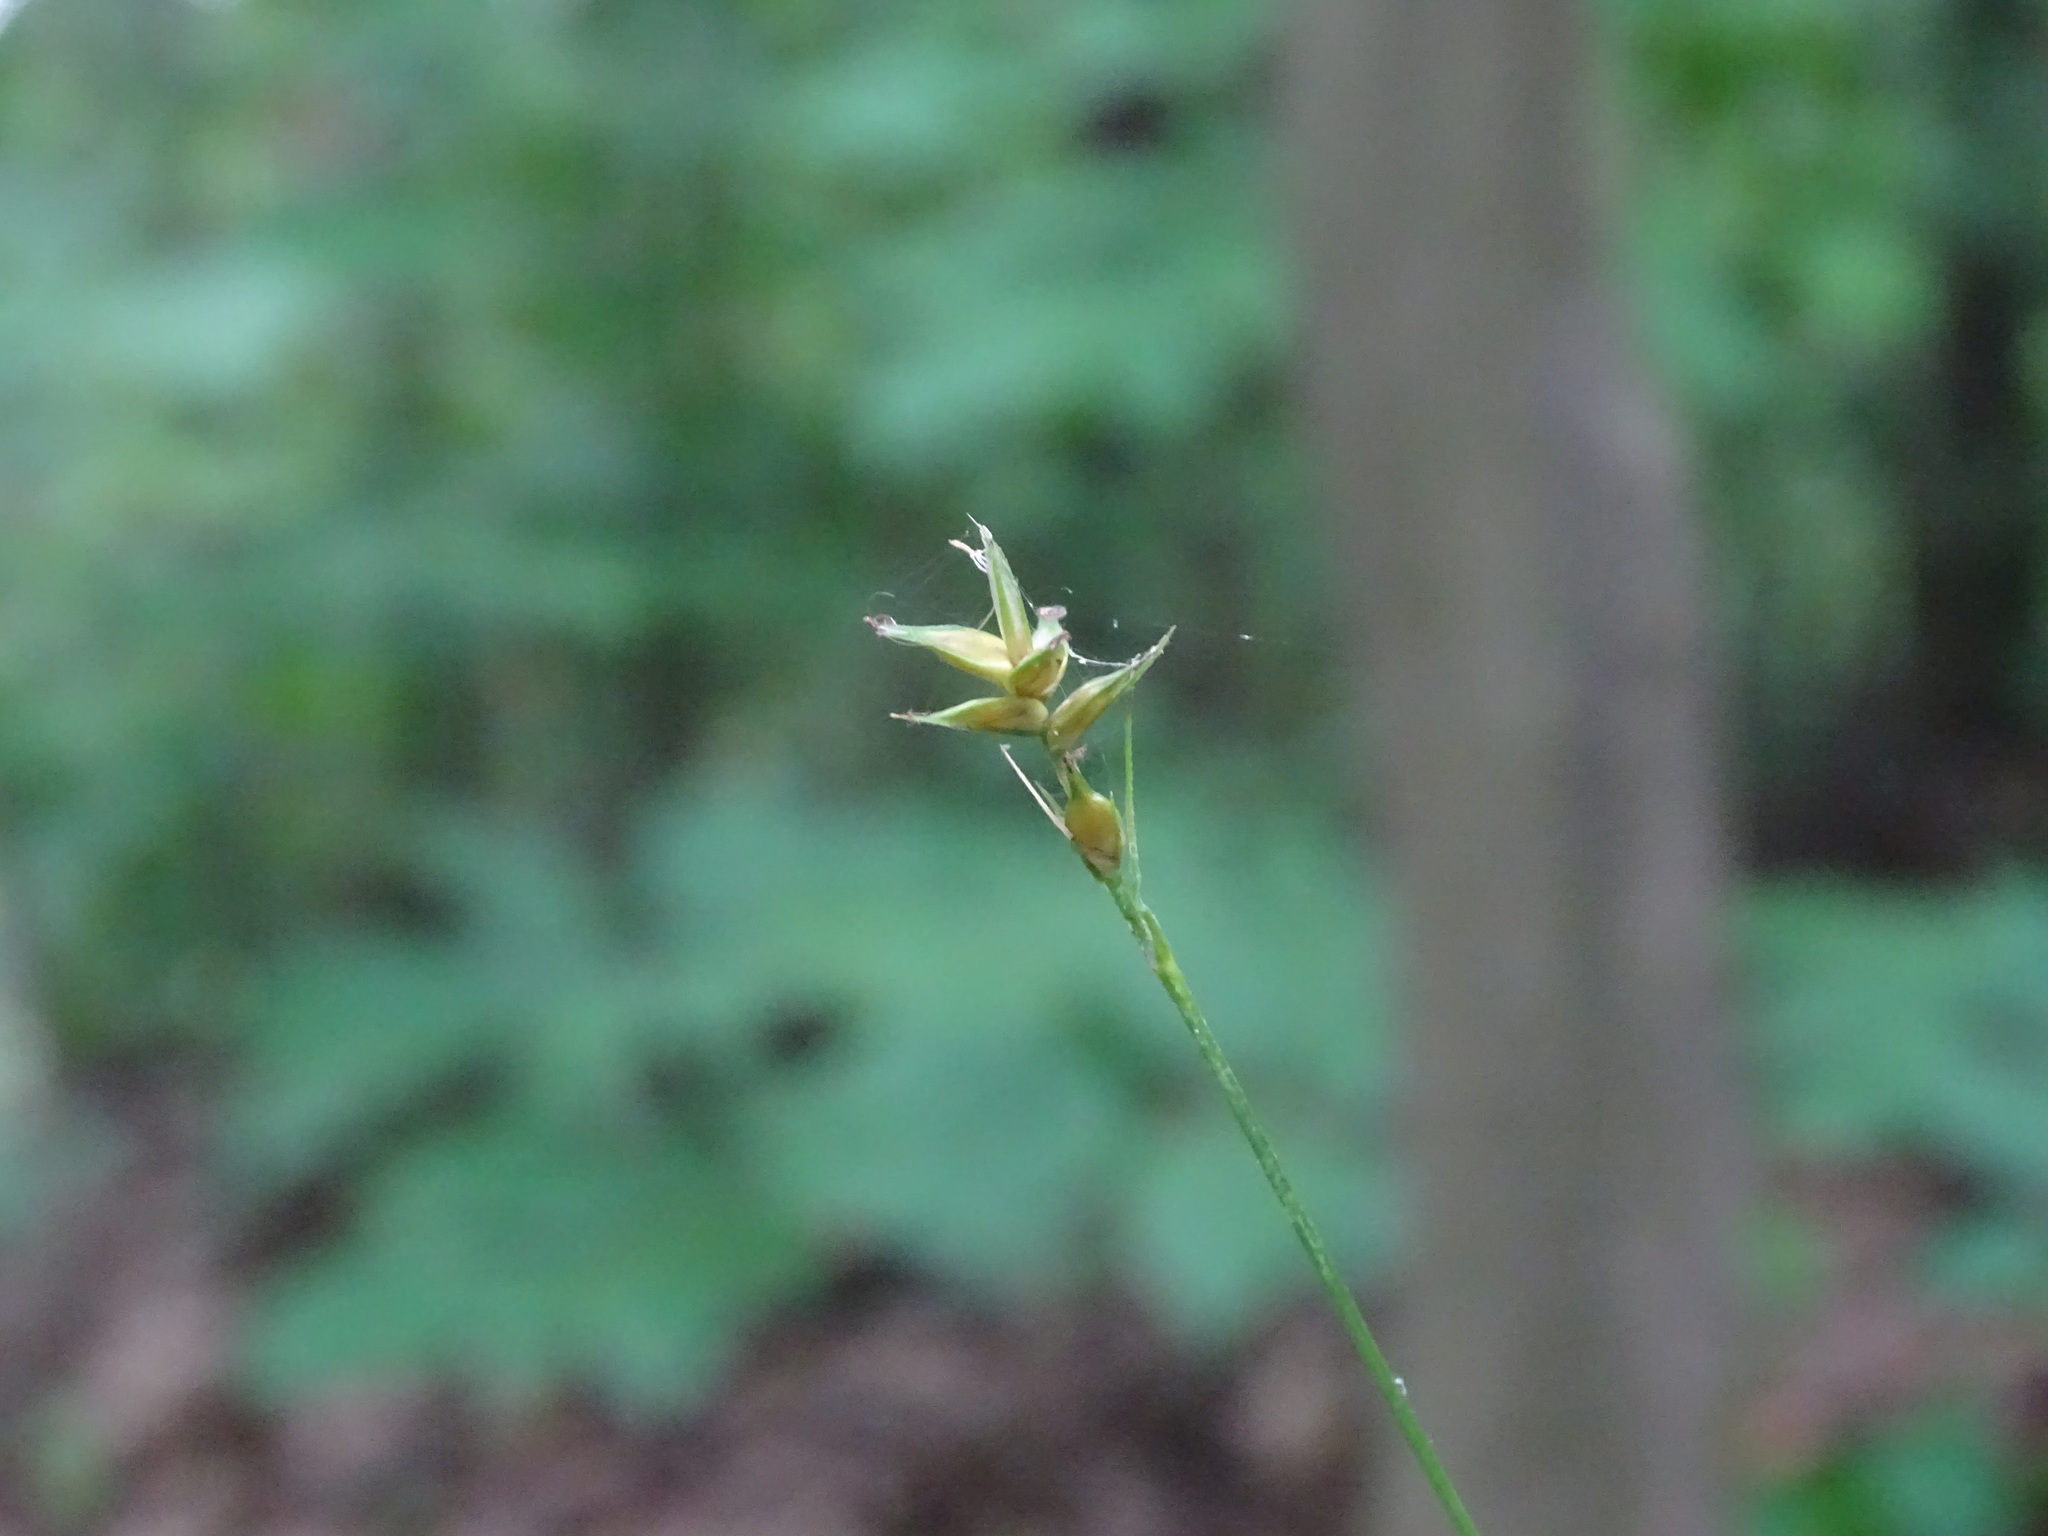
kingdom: Plantae
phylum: Tracheophyta
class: Liliopsida
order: Poales
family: Cyperaceae
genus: Carex
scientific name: Carex spicata
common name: Spiked sedge
